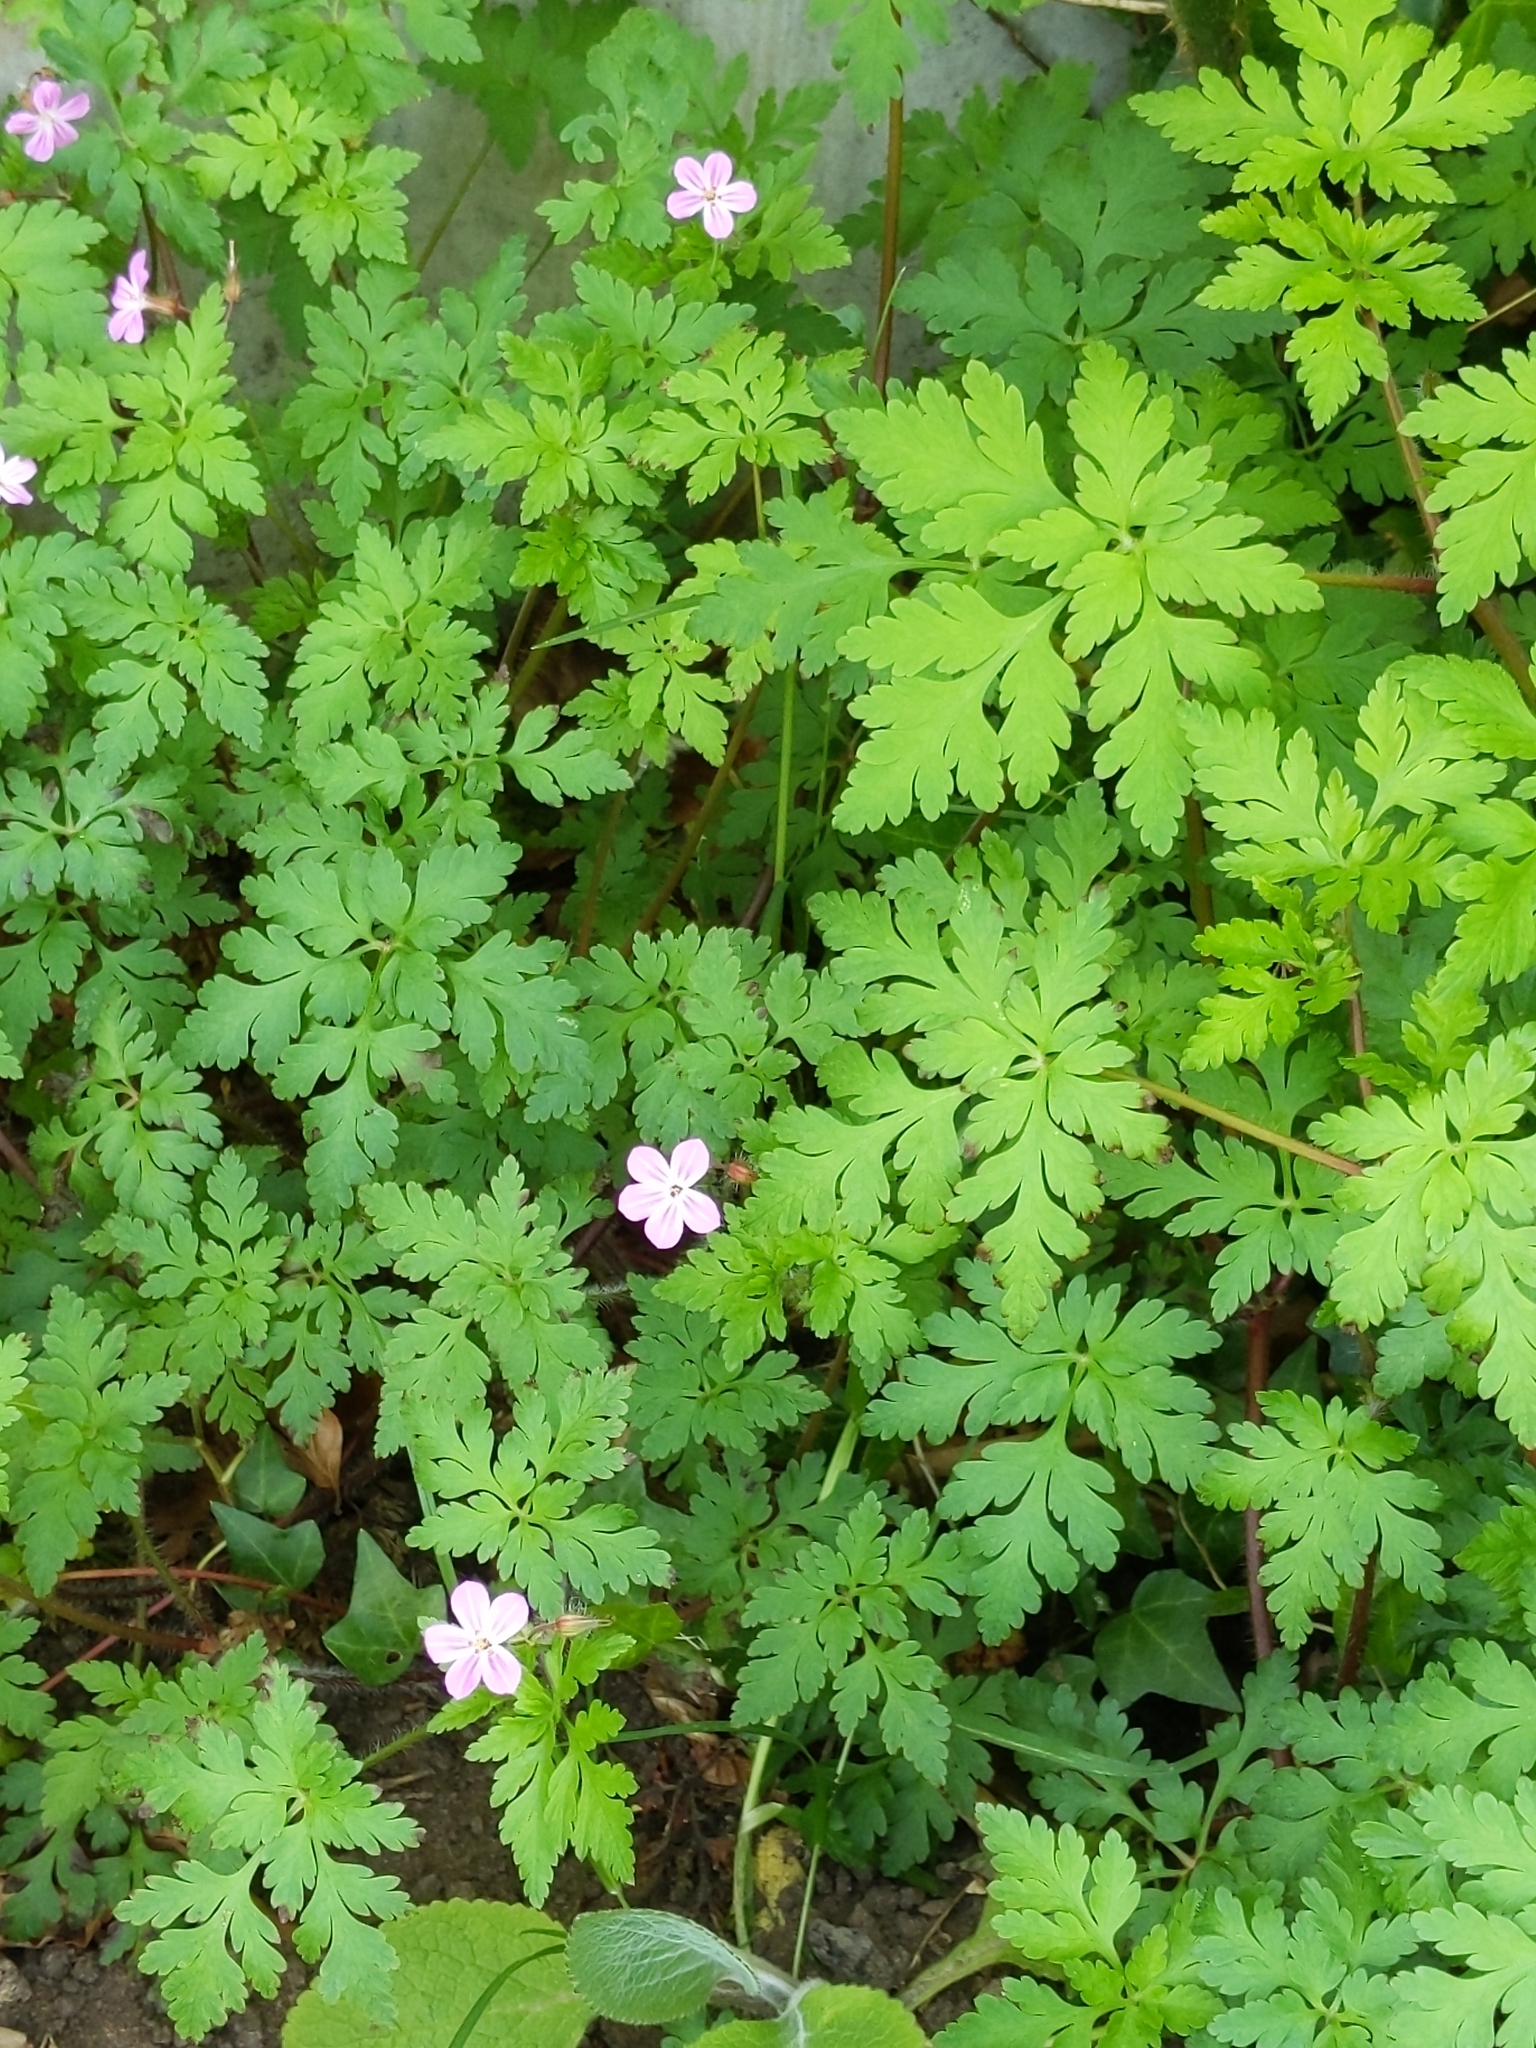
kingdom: Plantae
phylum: Tracheophyta
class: Magnoliopsida
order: Geraniales
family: Geraniaceae
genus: Geranium
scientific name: Geranium robertianum
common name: Herb-robert
